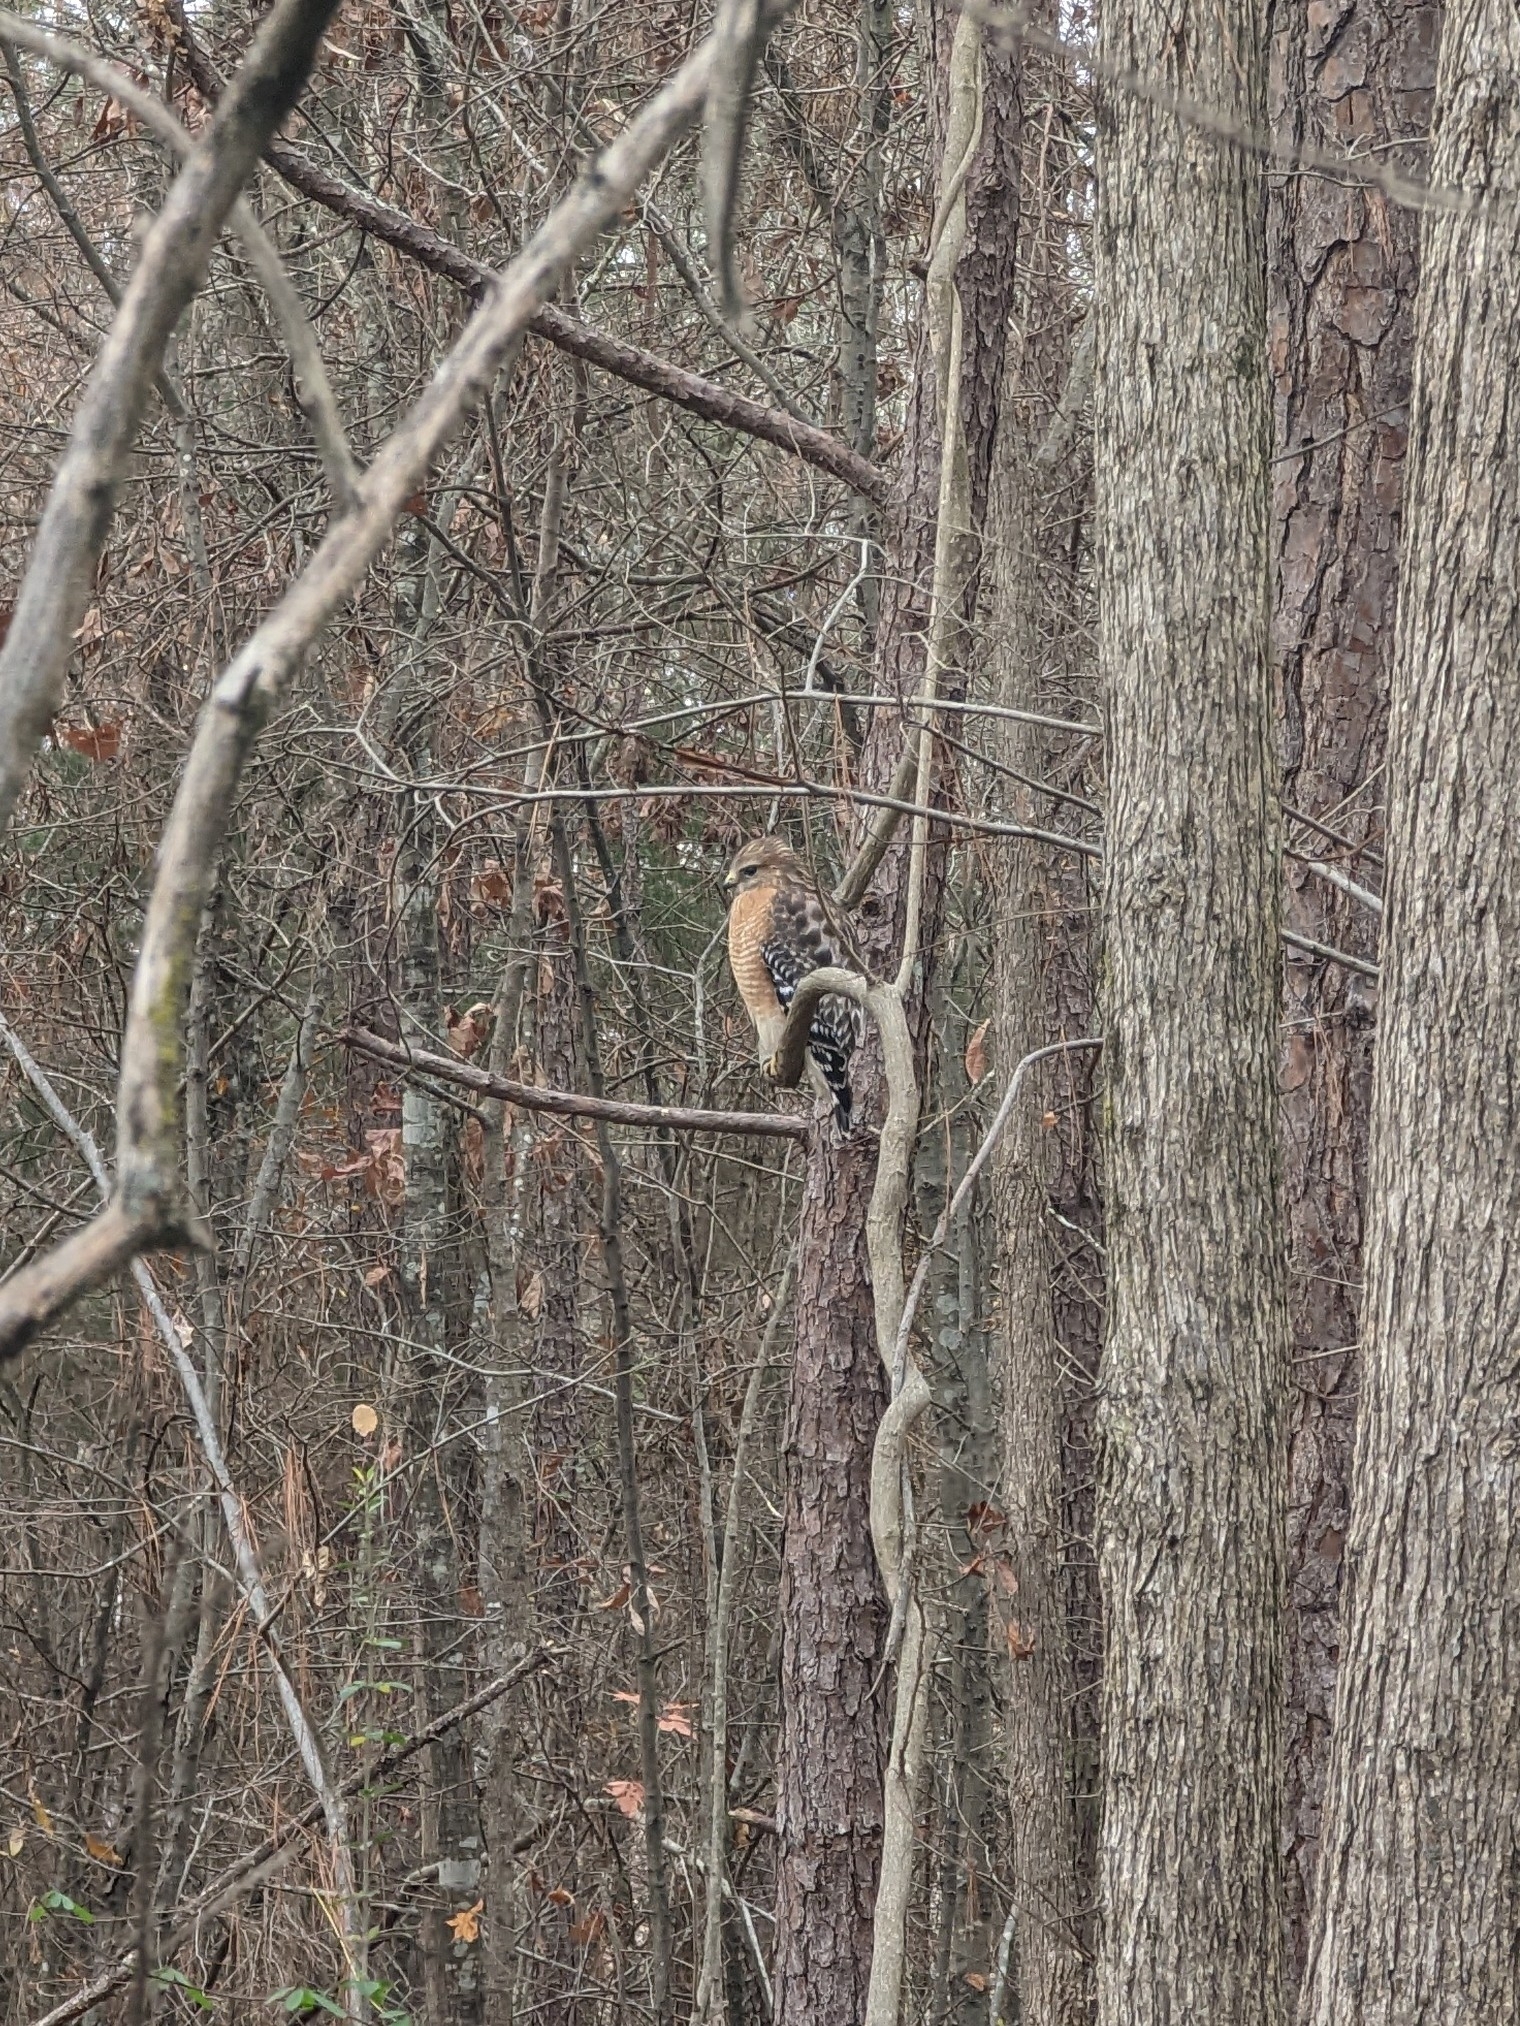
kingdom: Animalia
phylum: Chordata
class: Aves
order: Accipitriformes
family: Accipitridae
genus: Buteo
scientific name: Buteo lineatus
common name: Red-shouldered hawk
